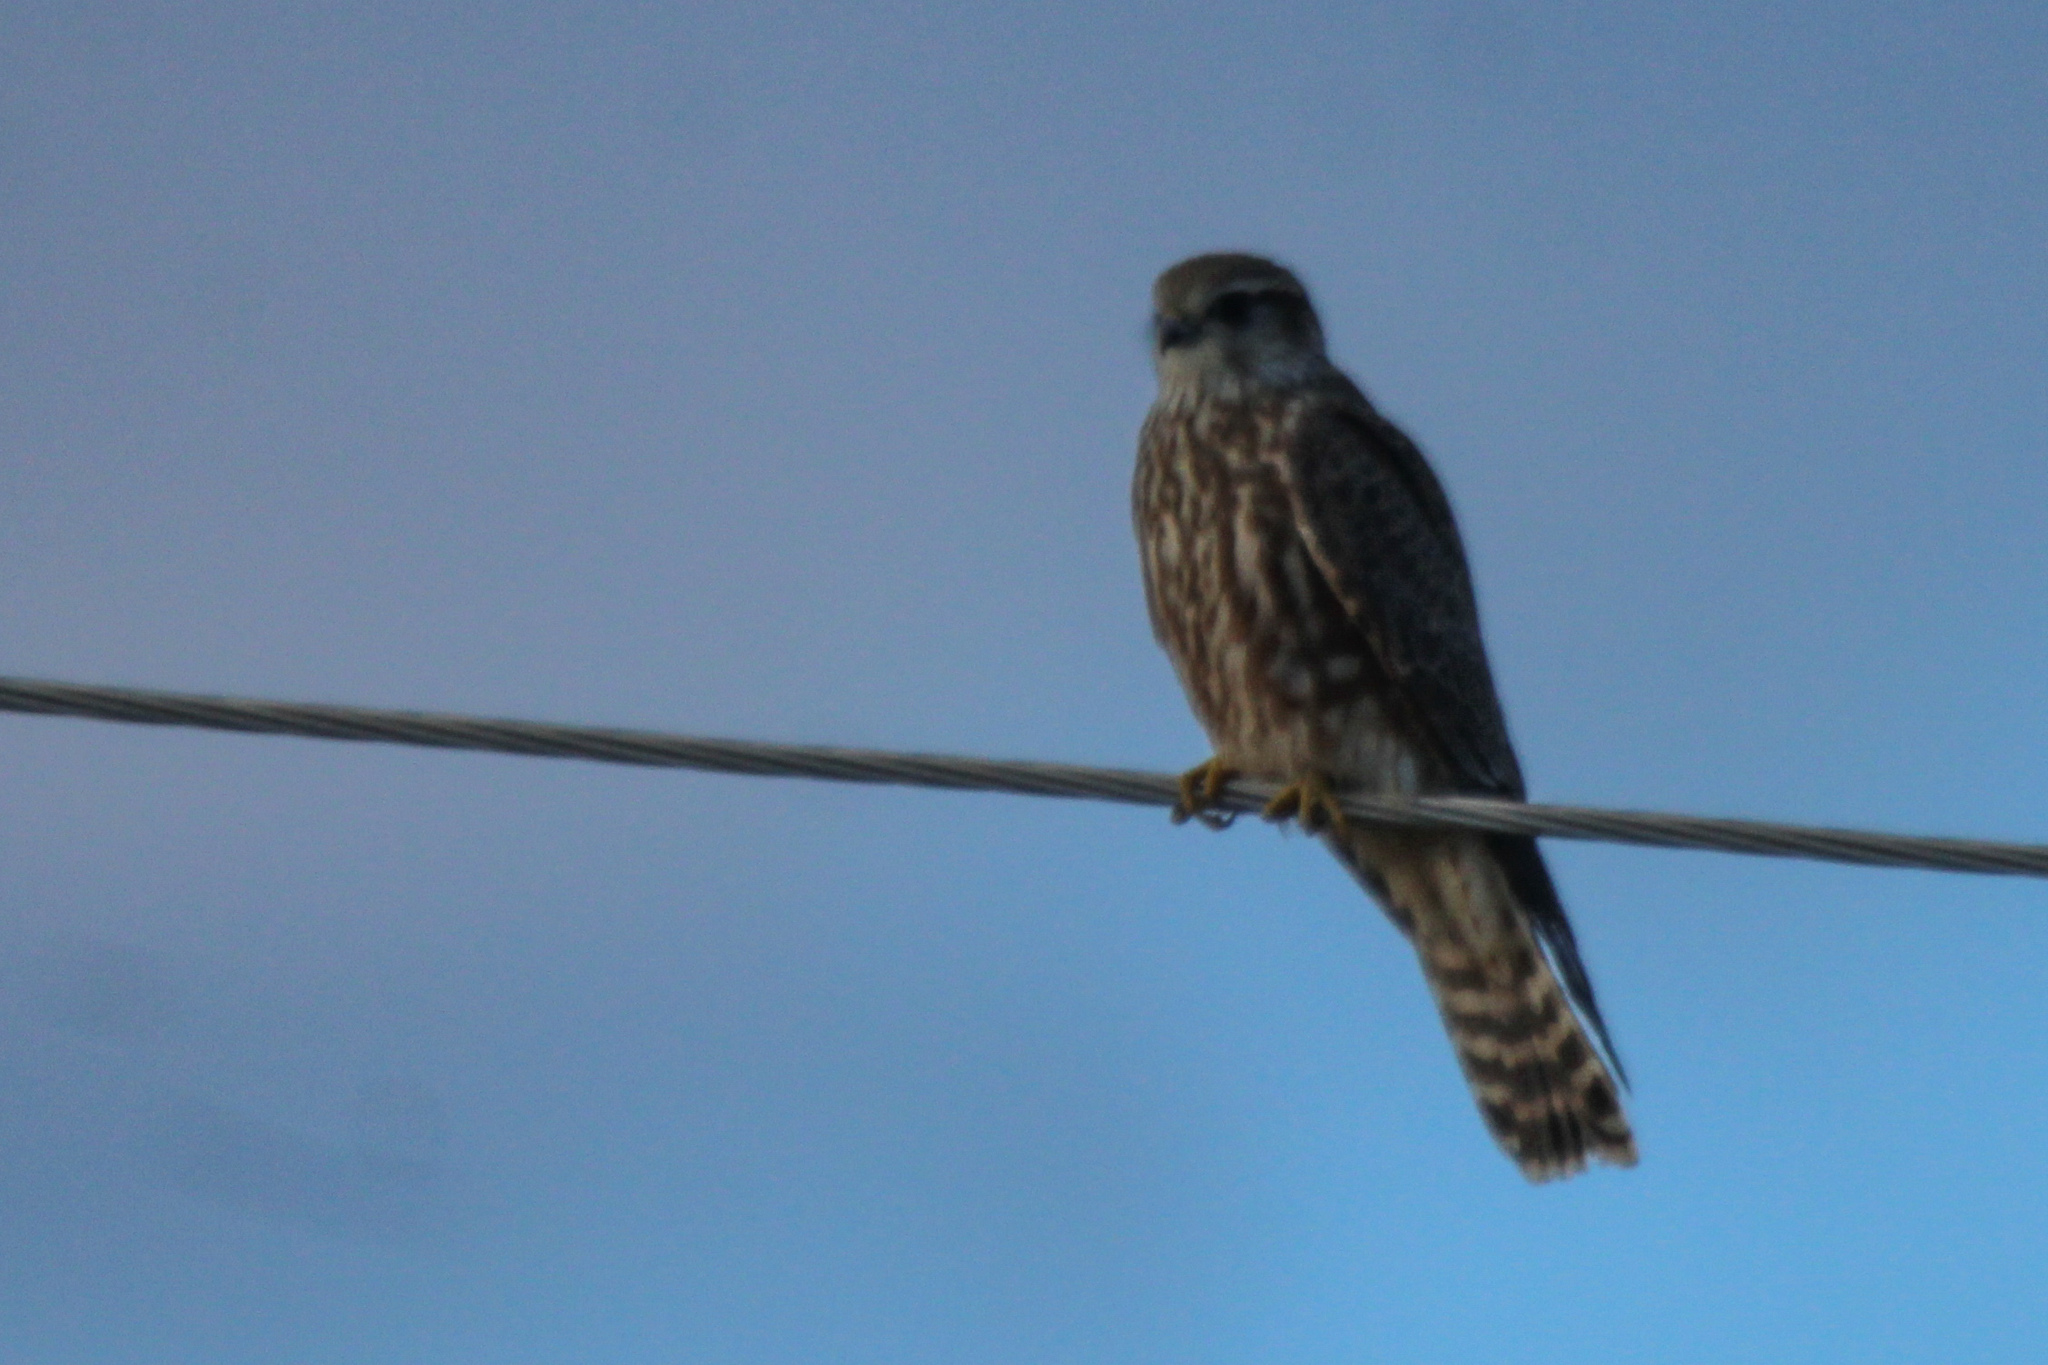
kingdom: Animalia
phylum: Chordata
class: Aves
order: Falconiformes
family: Falconidae
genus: Falco
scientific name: Falco columbarius
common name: Merlin
